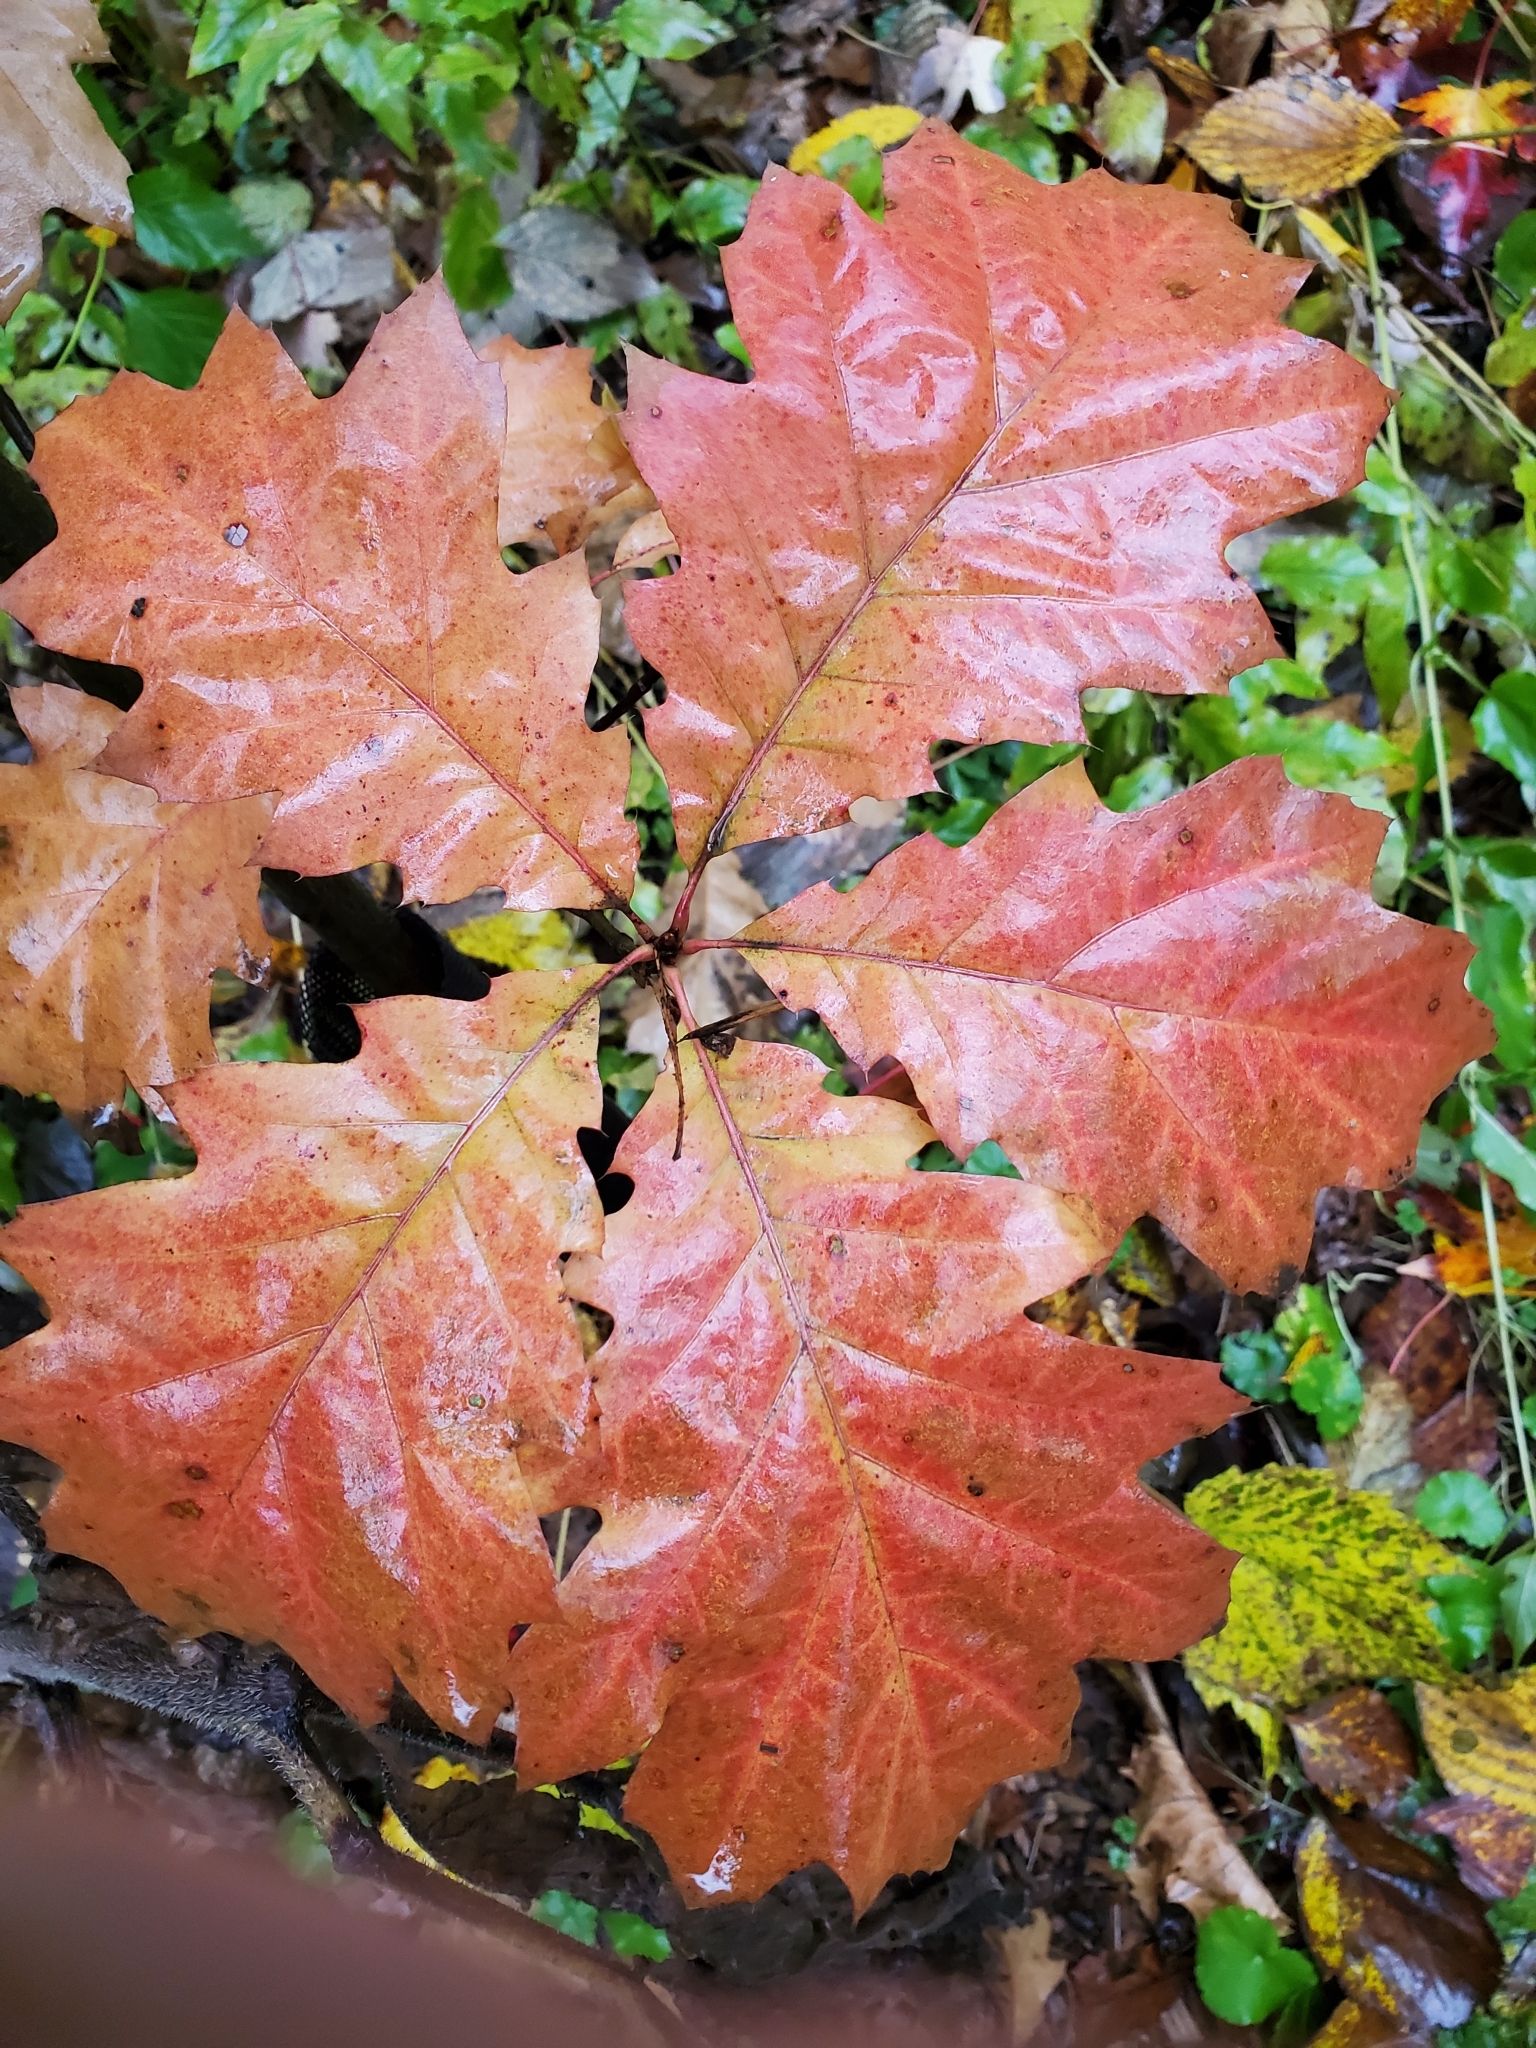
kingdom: Plantae
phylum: Tracheophyta
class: Magnoliopsida
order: Fagales
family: Fagaceae
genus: Quercus
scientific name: Quercus rubra
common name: Red oak
